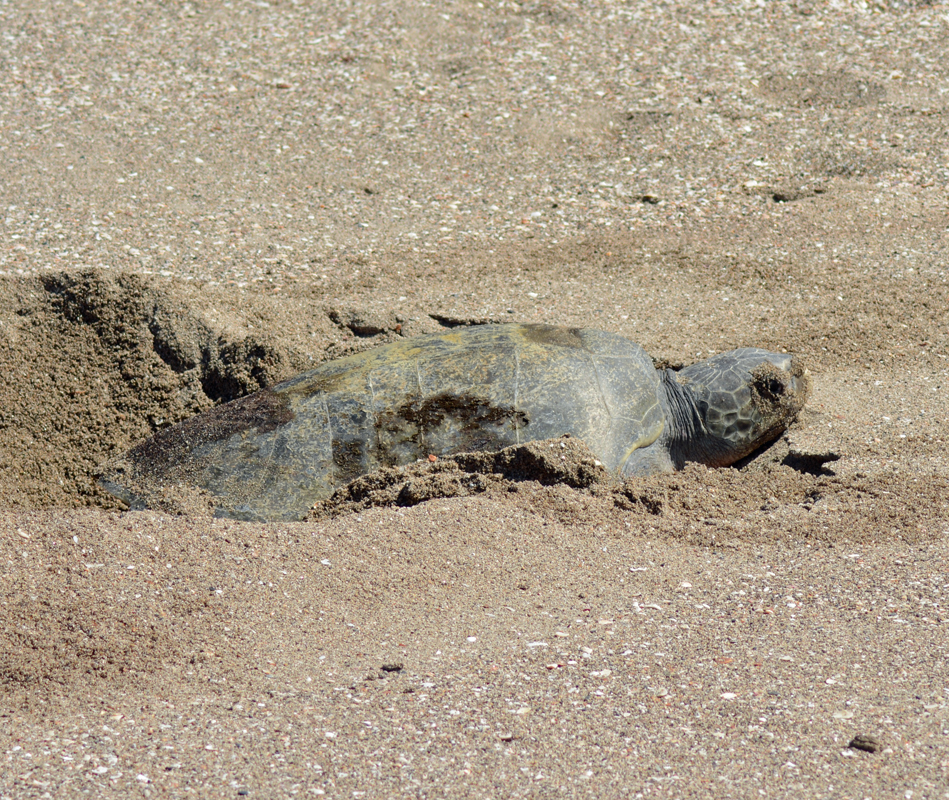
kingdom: Animalia
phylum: Chordata
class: Testudines
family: Cheloniidae
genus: Lepidochelys
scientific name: Lepidochelys olivacea
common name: Olive ridley
